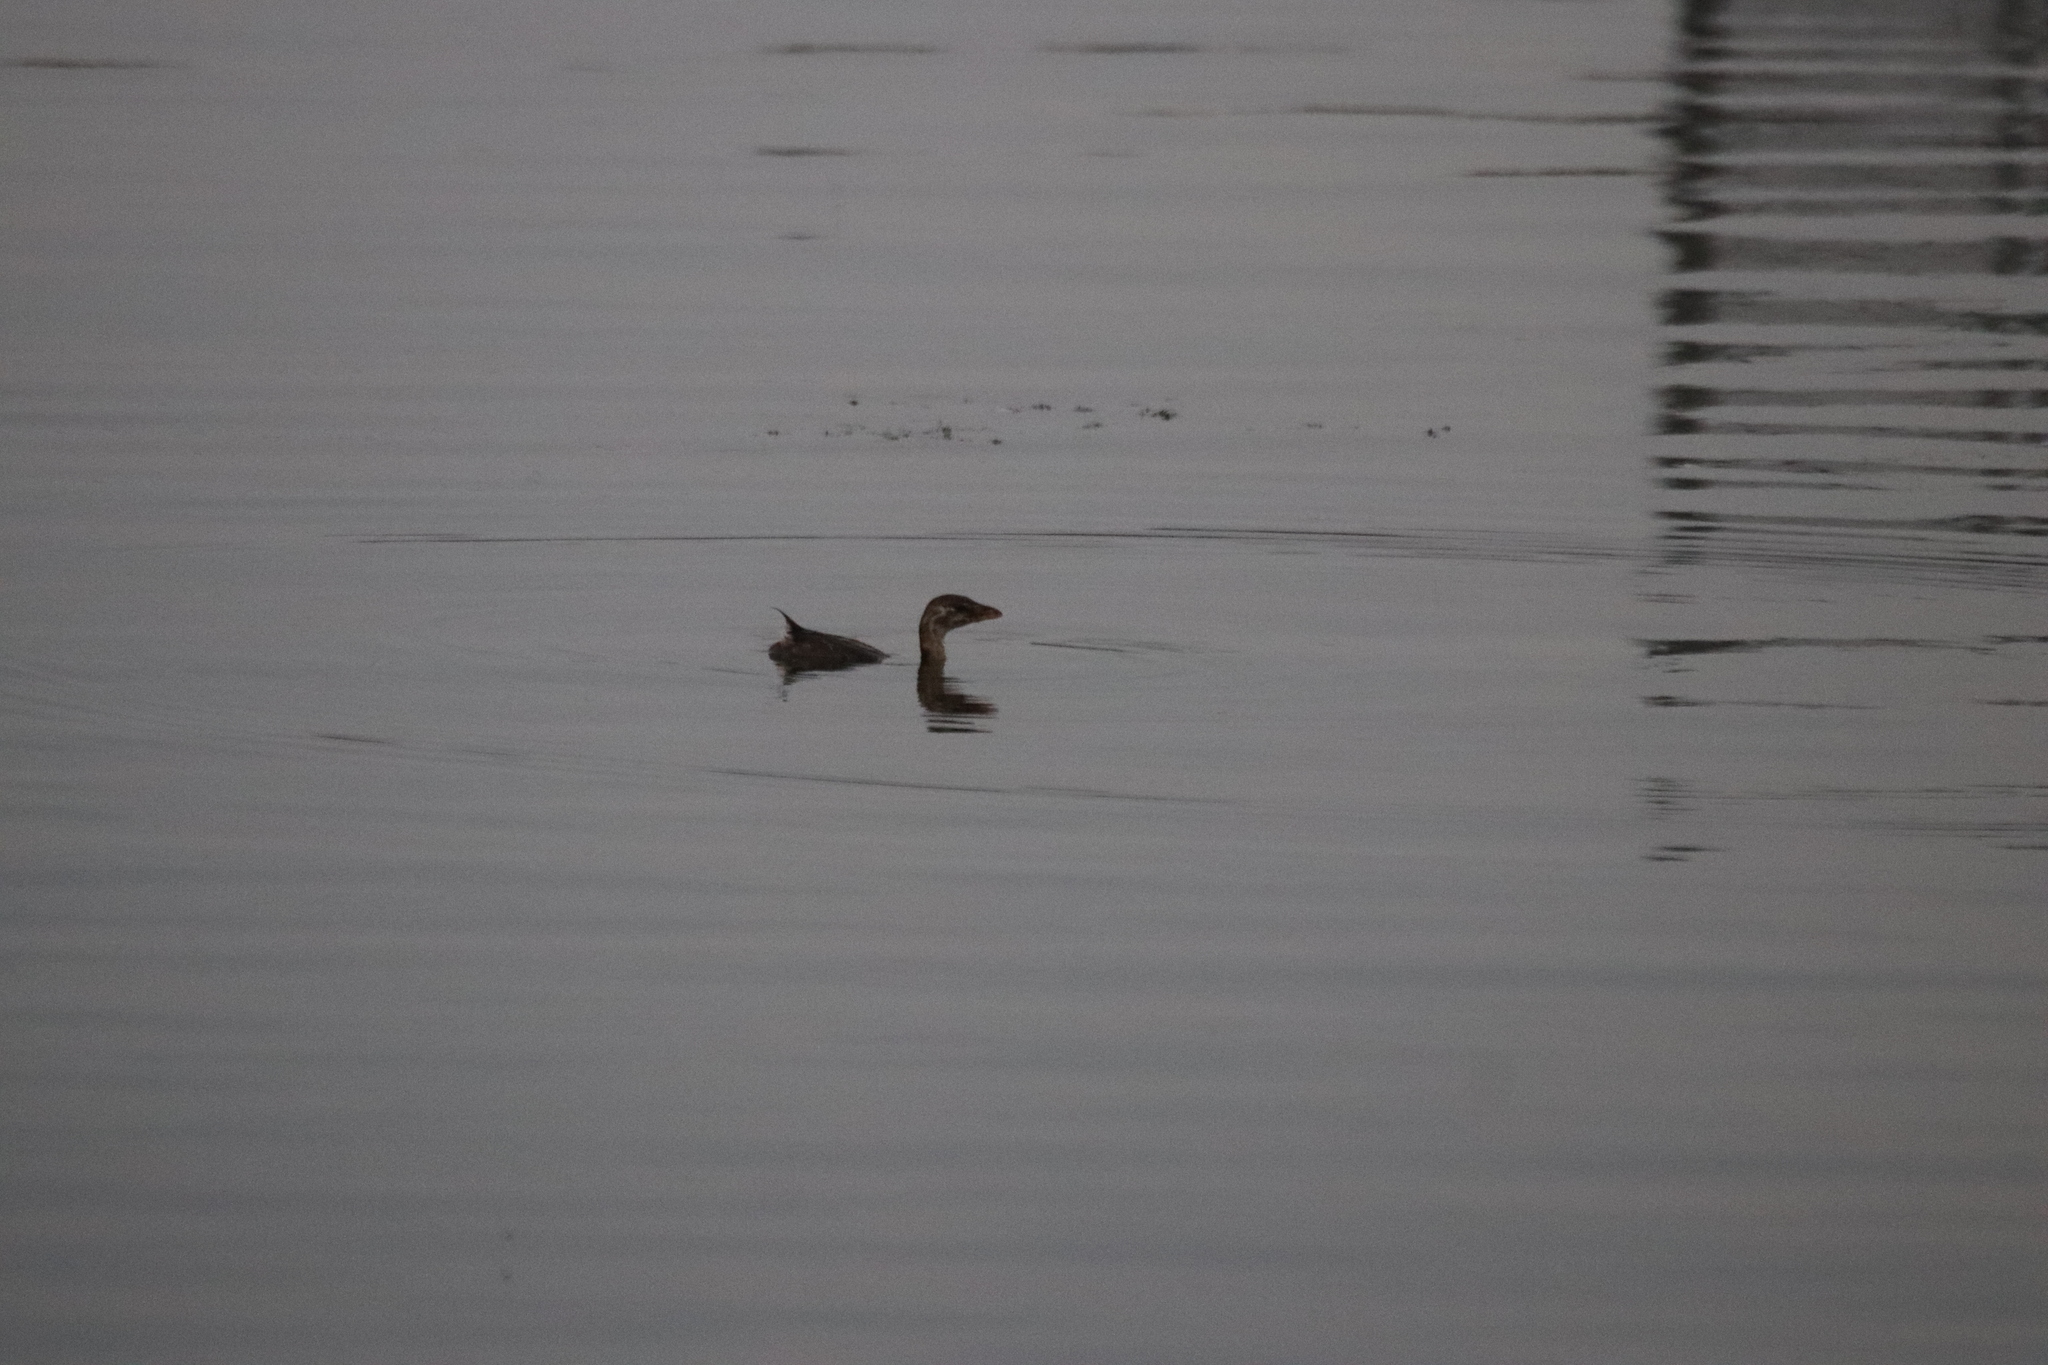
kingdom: Animalia
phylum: Chordata
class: Aves
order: Podicipediformes
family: Podicipedidae
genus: Podilymbus
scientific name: Podilymbus podiceps
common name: Pied-billed grebe
